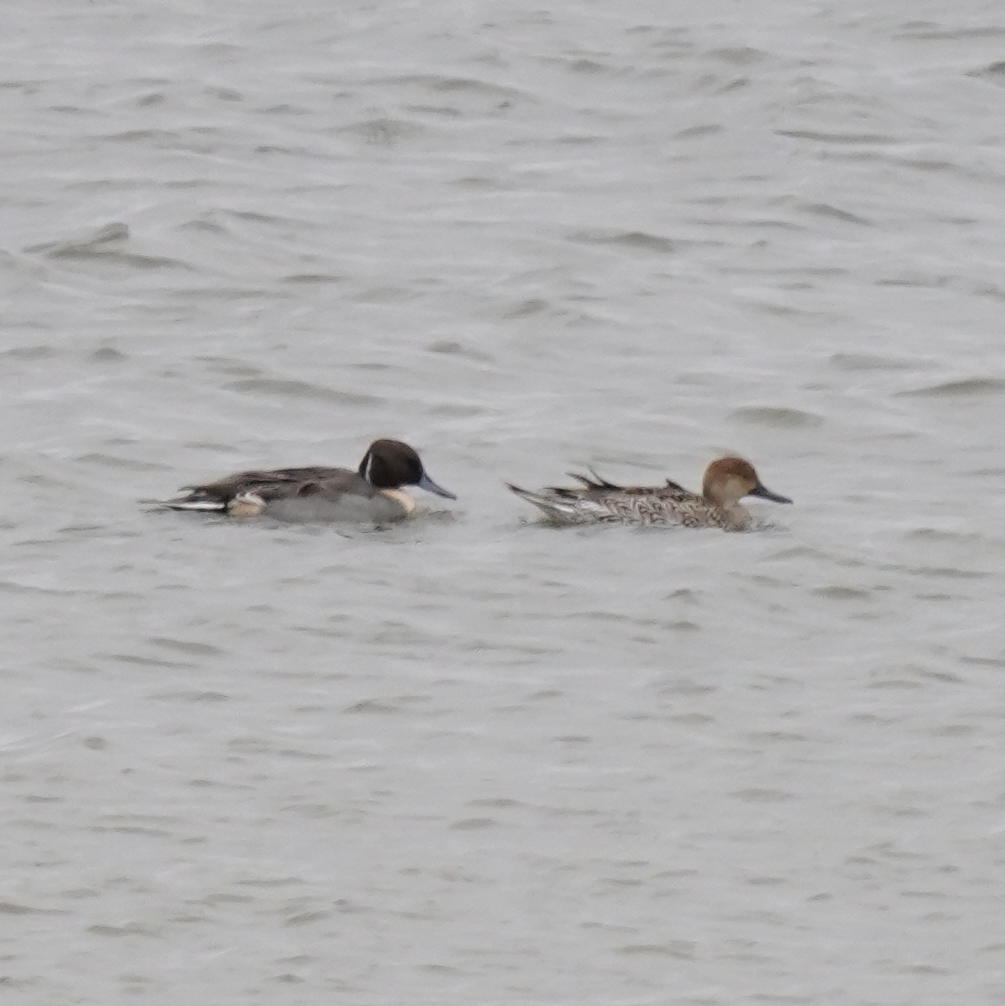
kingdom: Animalia
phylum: Chordata
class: Aves
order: Anseriformes
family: Anatidae
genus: Anas
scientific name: Anas acuta
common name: Northern pintail
